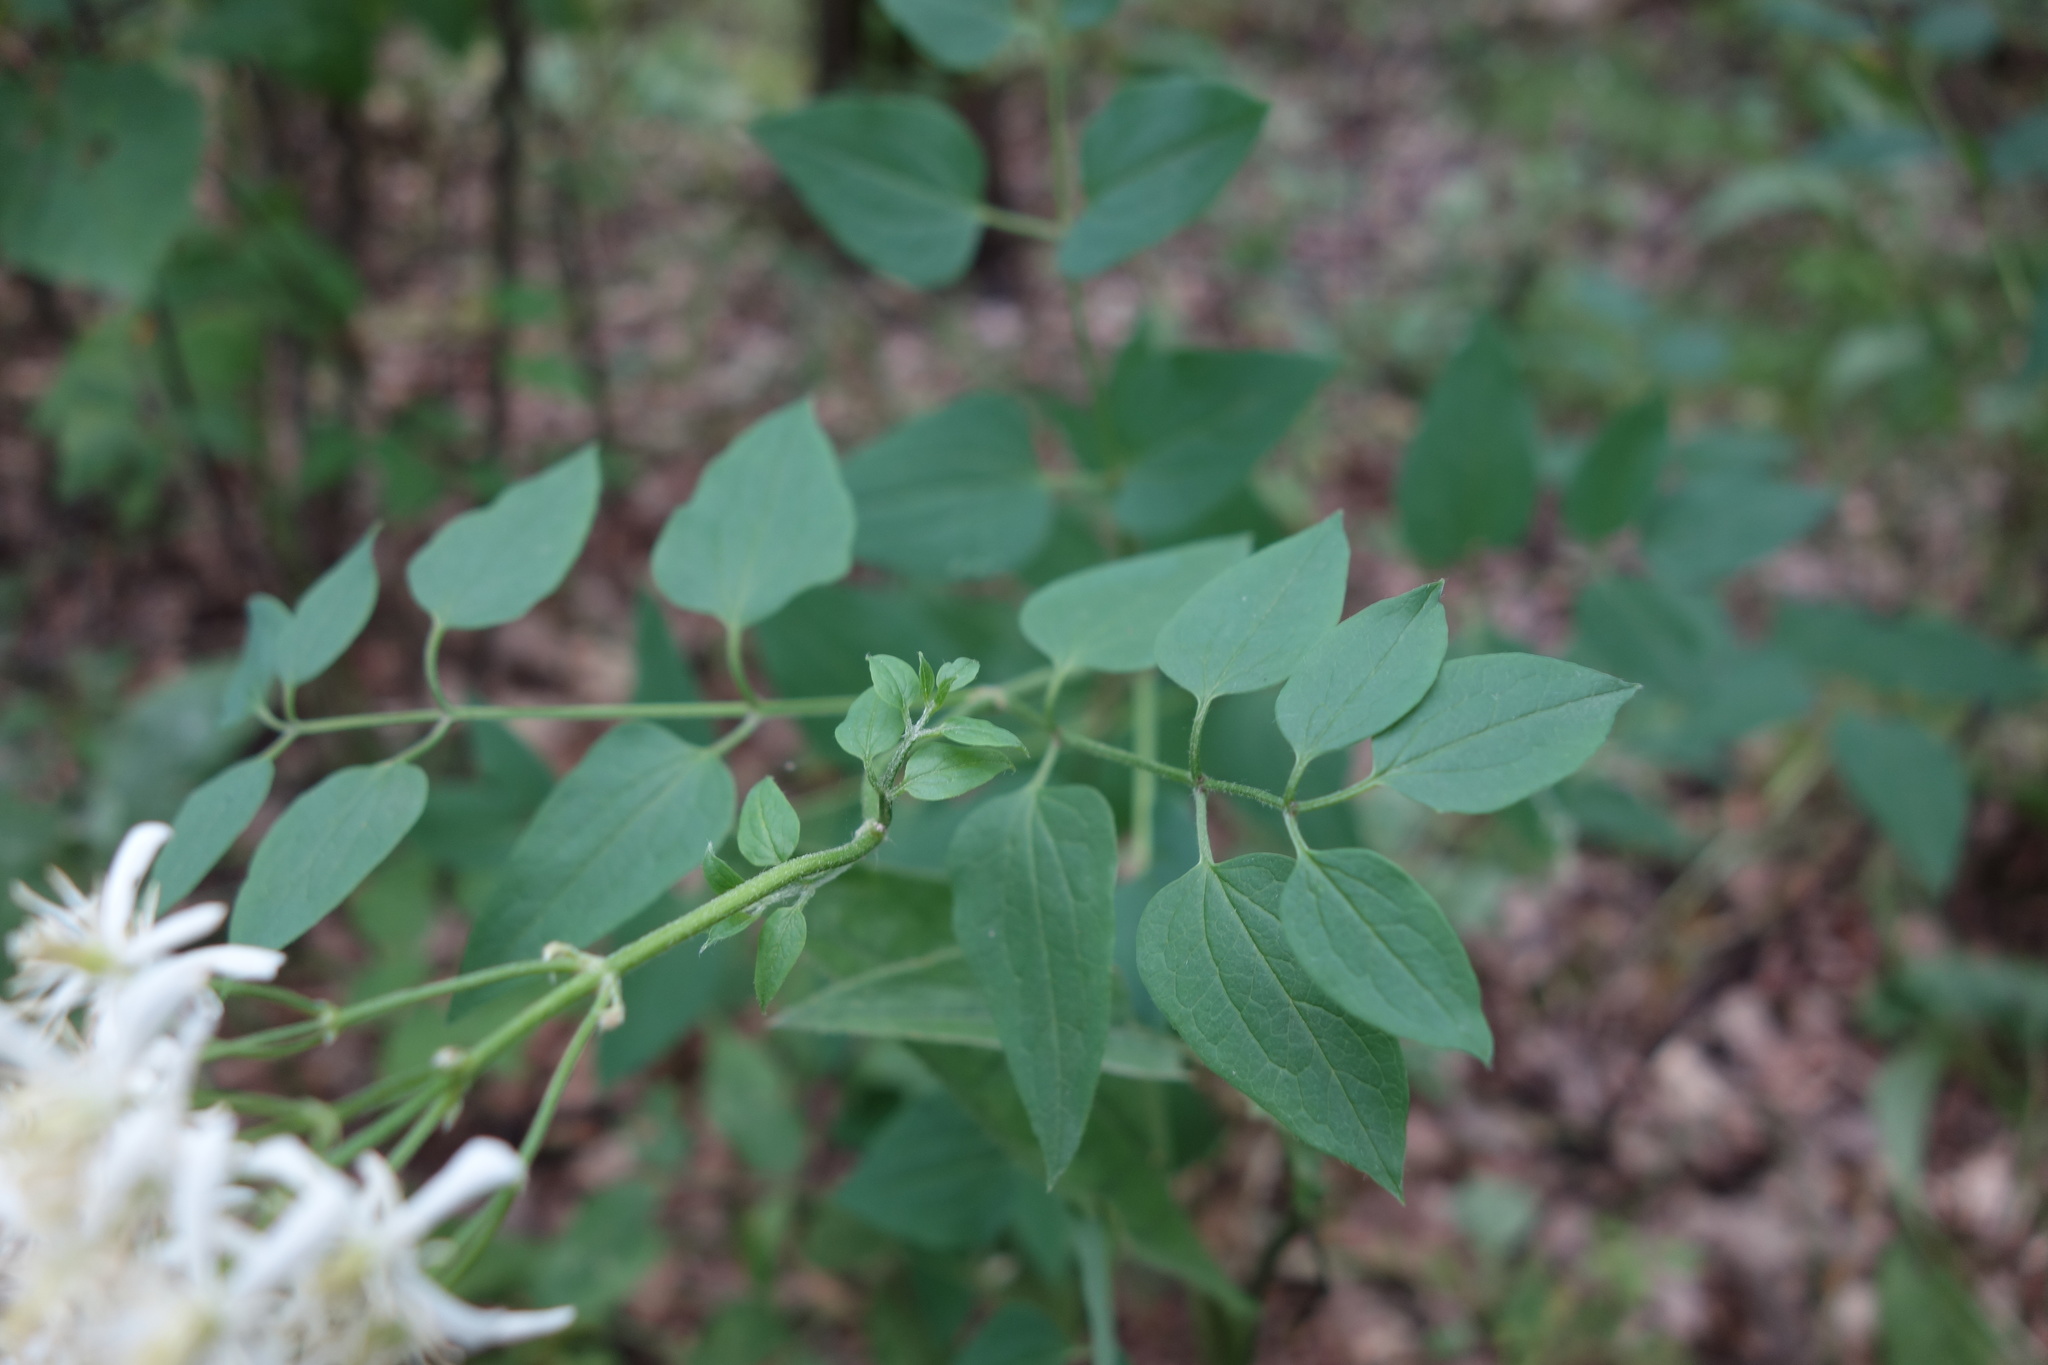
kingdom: Plantae
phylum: Tracheophyta
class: Magnoliopsida
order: Ranunculales
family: Ranunculaceae
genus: Clematis
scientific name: Clematis recta
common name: Ground clematis
